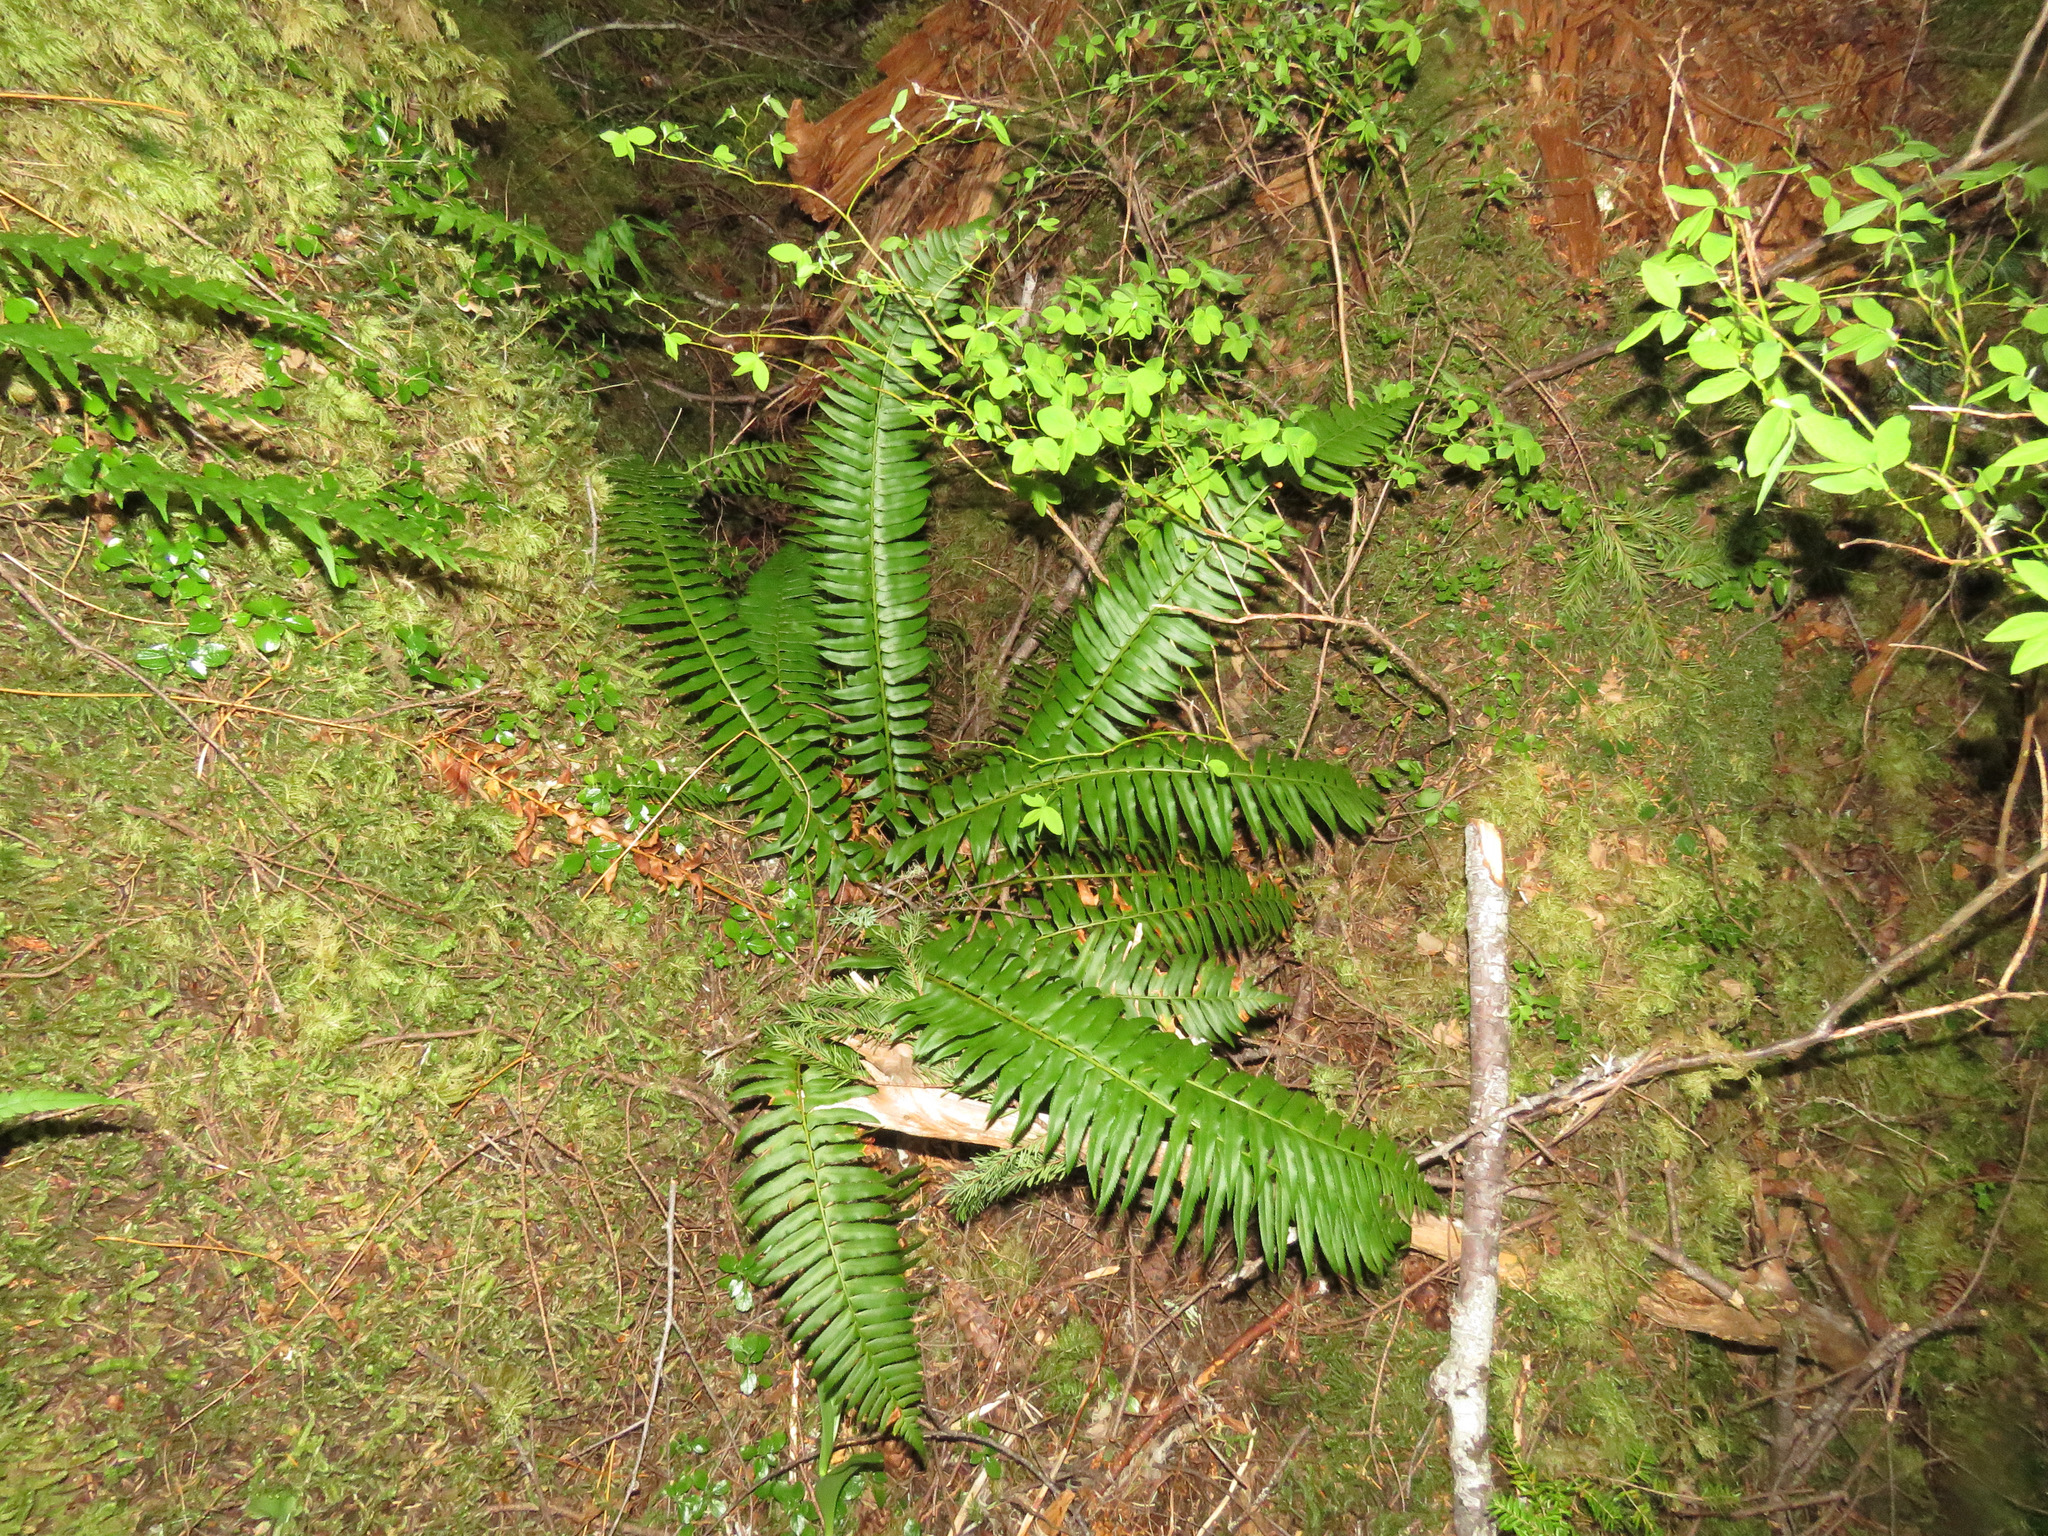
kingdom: Plantae
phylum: Tracheophyta
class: Polypodiopsida
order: Polypodiales
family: Dryopteridaceae
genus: Polystichum
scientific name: Polystichum munitum
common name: Western sword-fern
